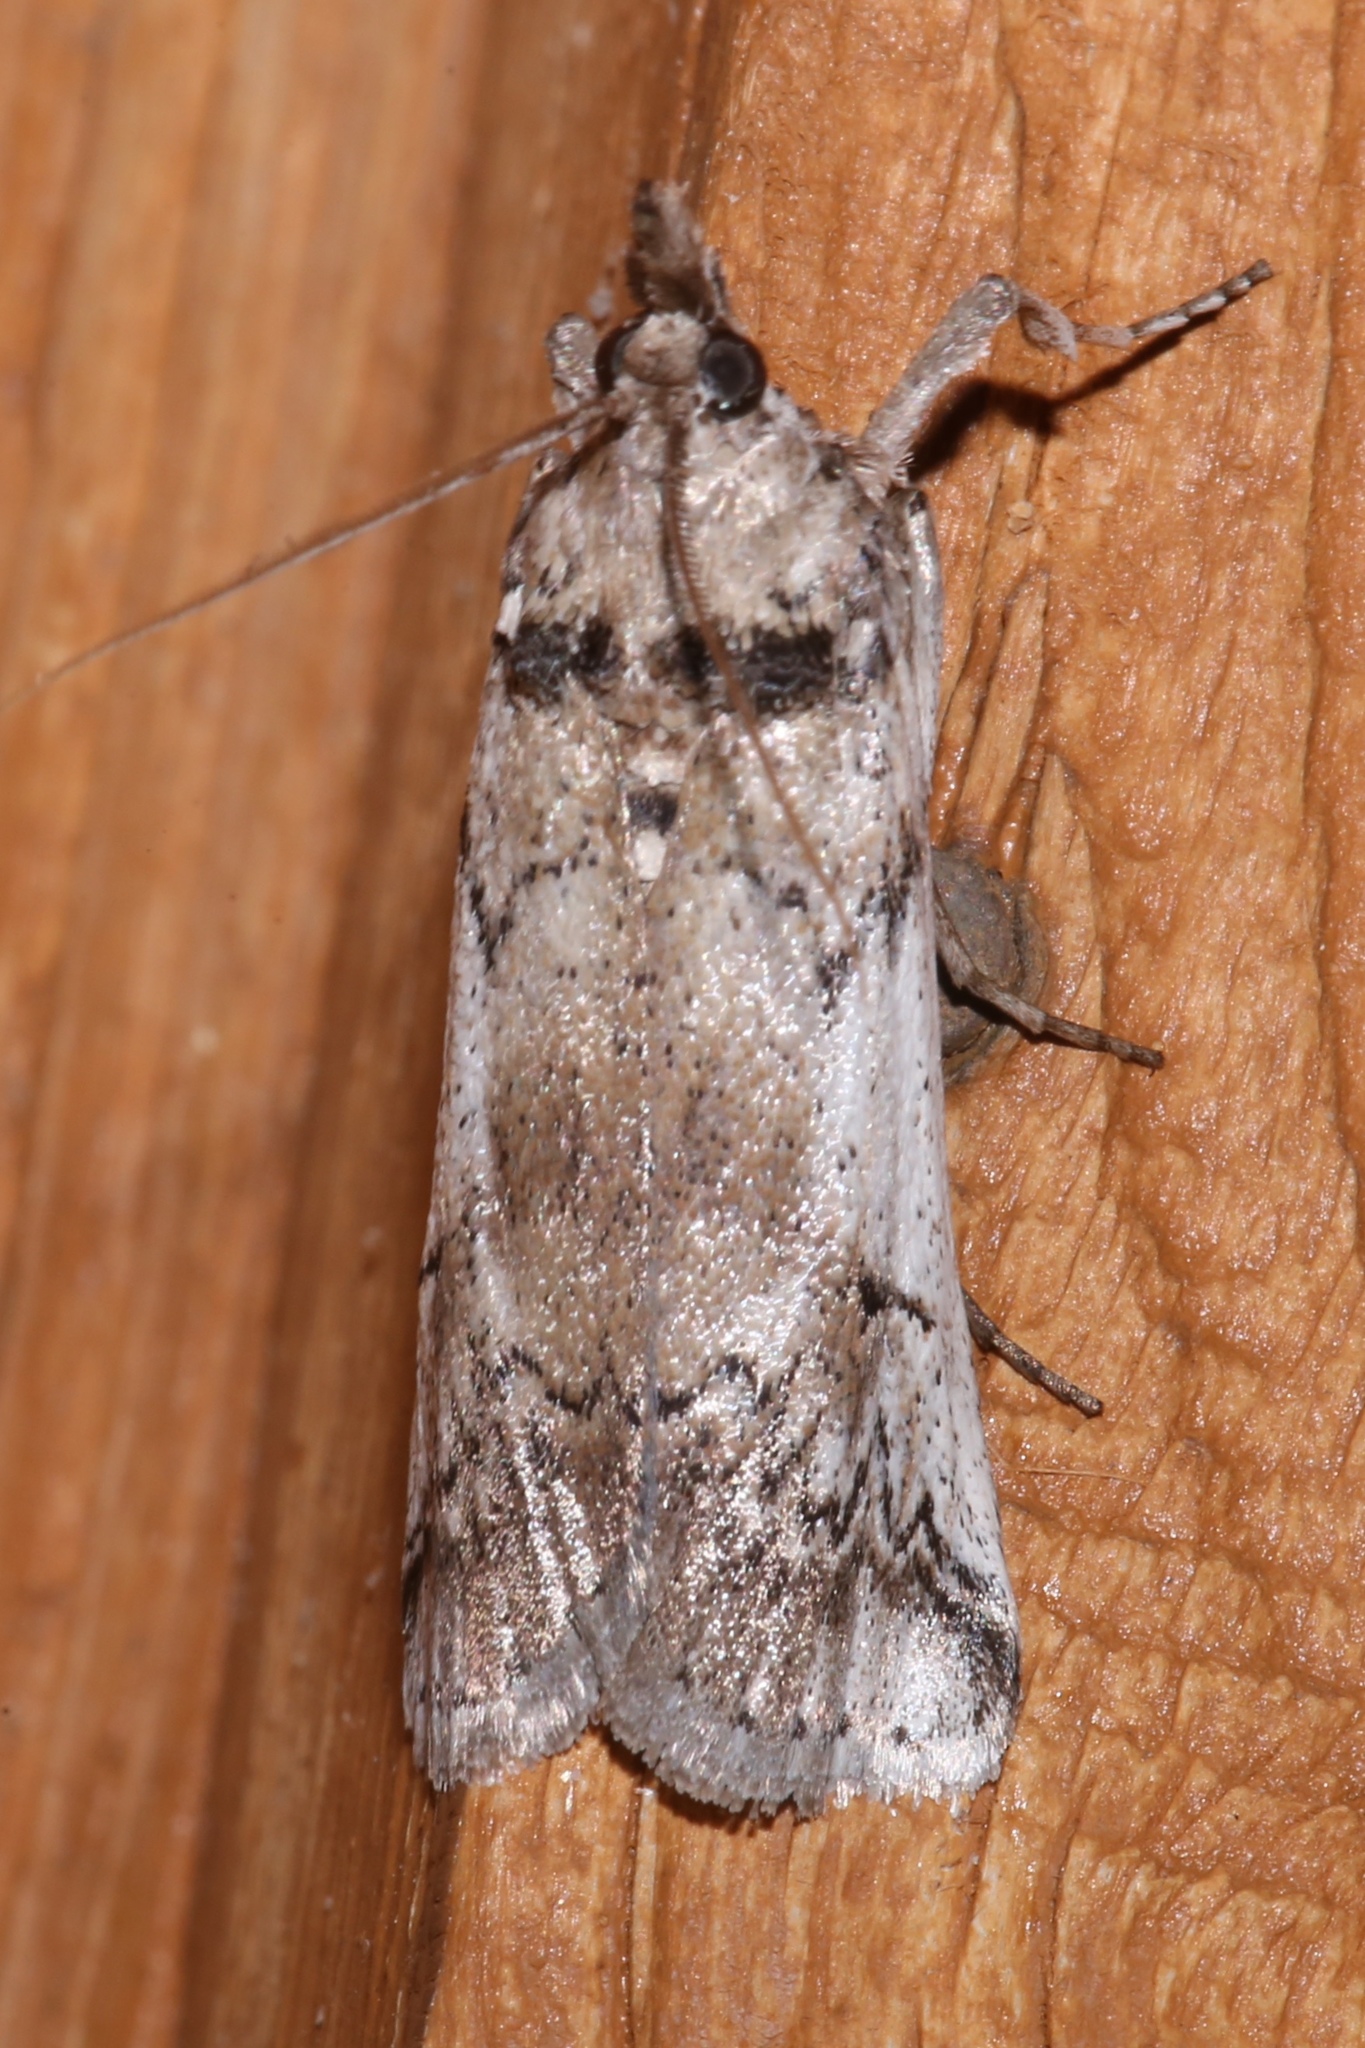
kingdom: Animalia
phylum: Arthropoda
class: Insecta
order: Lepidoptera
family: Pyralidae
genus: Cactoblastis
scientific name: Cactoblastis cactorum
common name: Cactus moth
